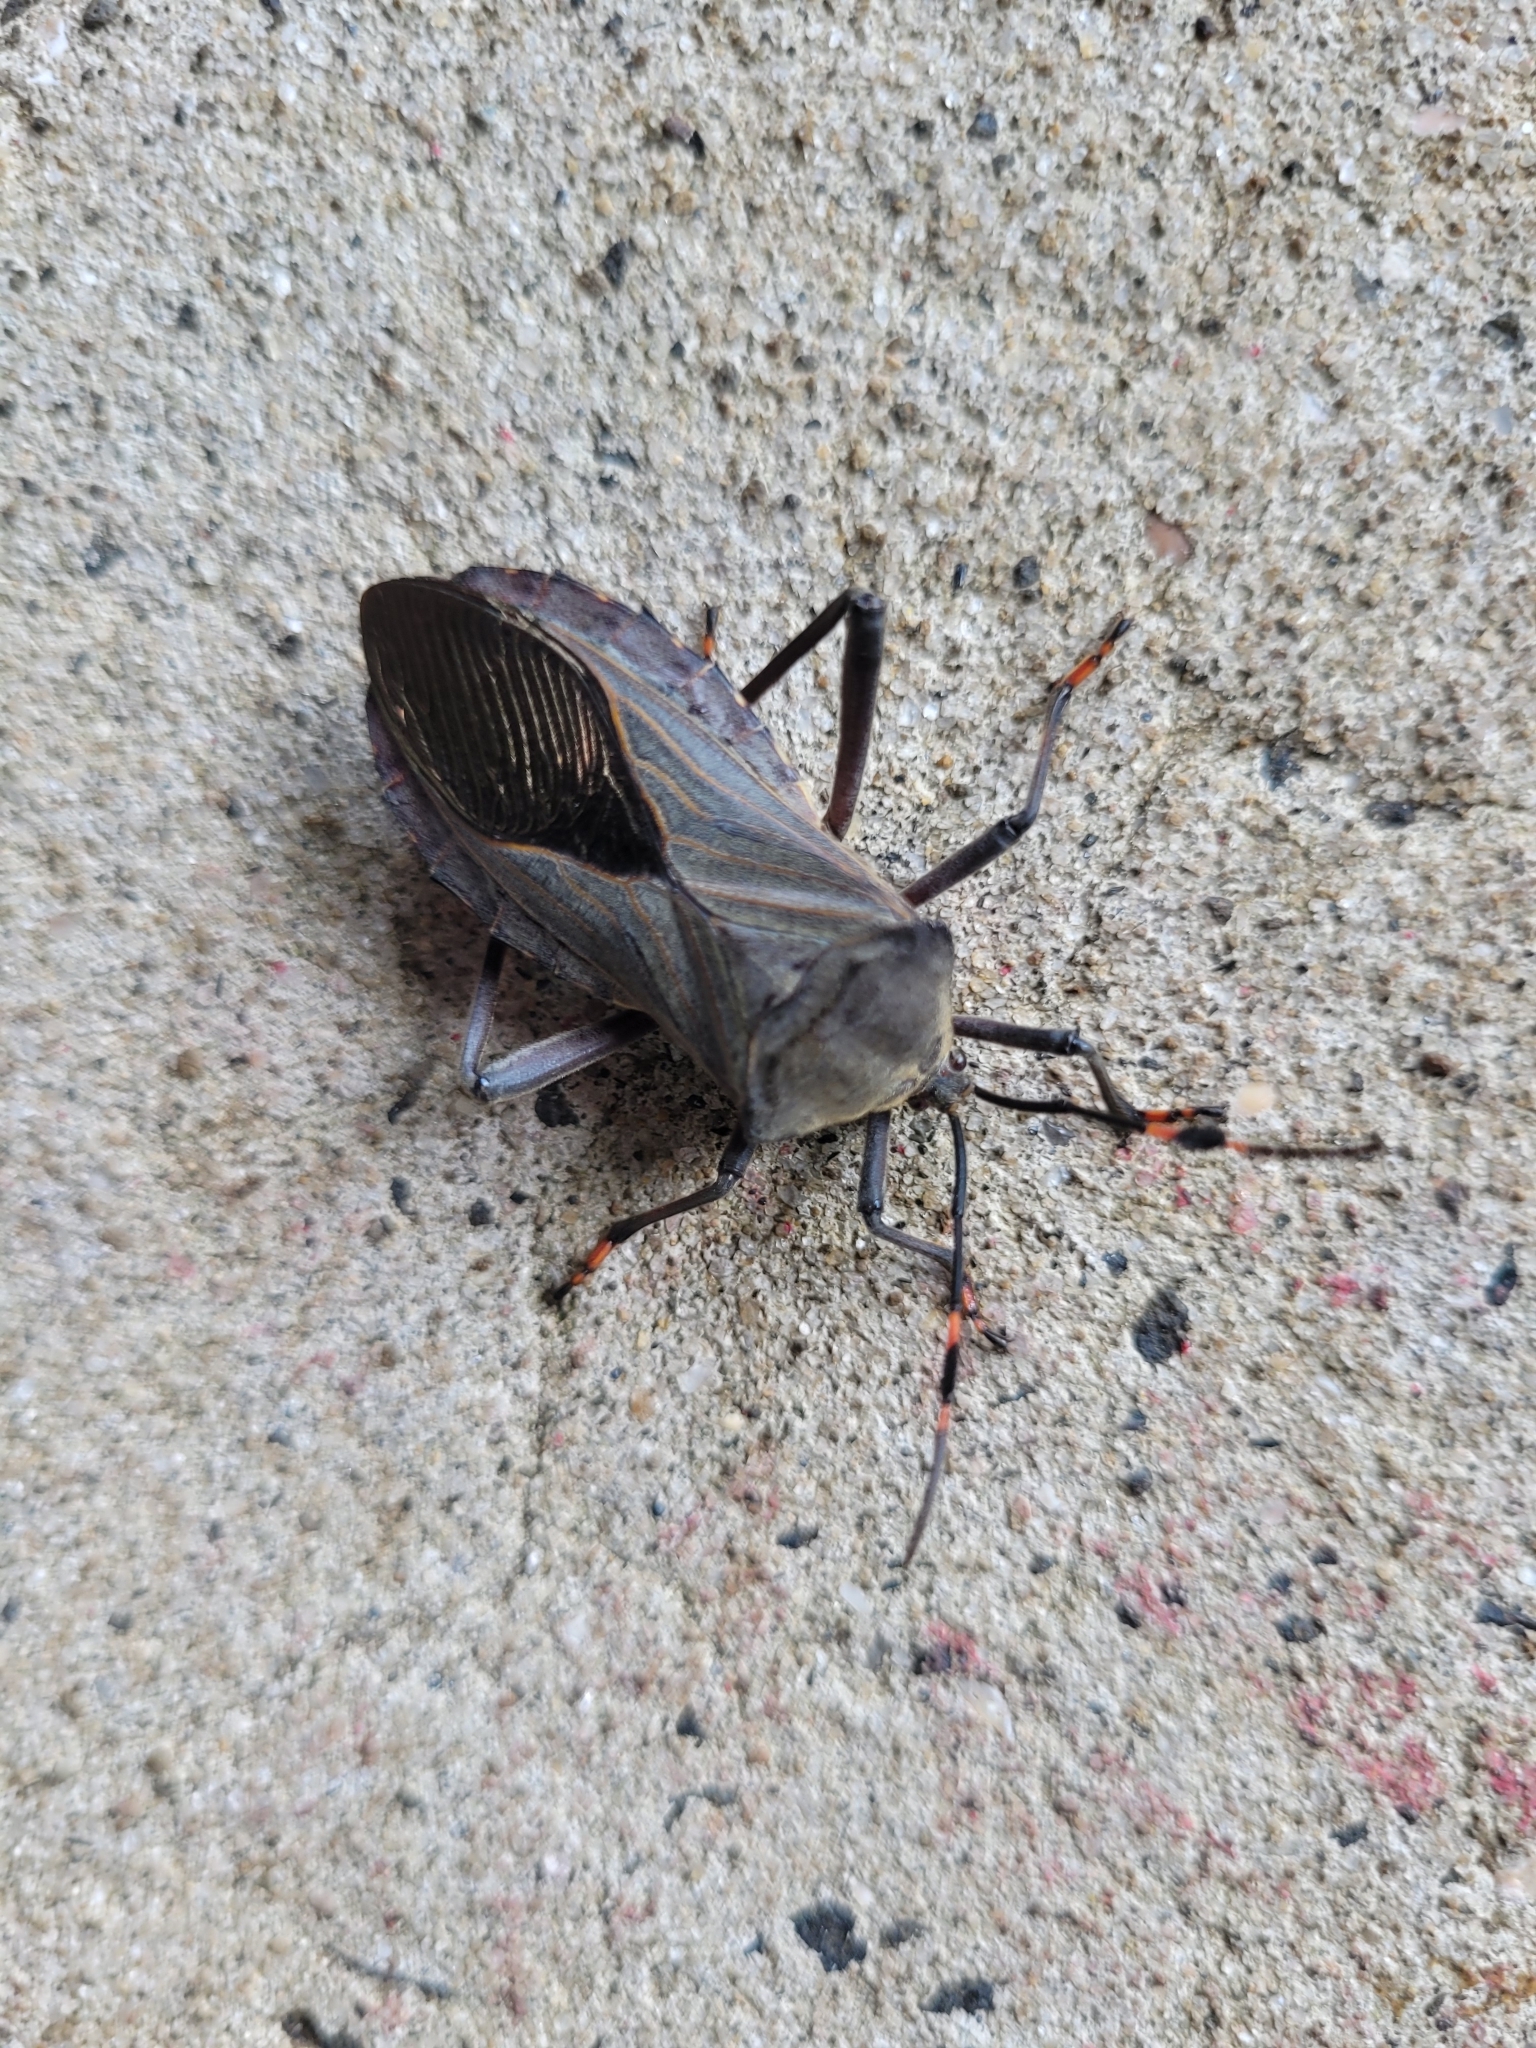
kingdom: Animalia
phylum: Arthropoda
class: Insecta
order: Hemiptera
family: Coreidae
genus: Pachylis
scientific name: Pachylis nervosus
